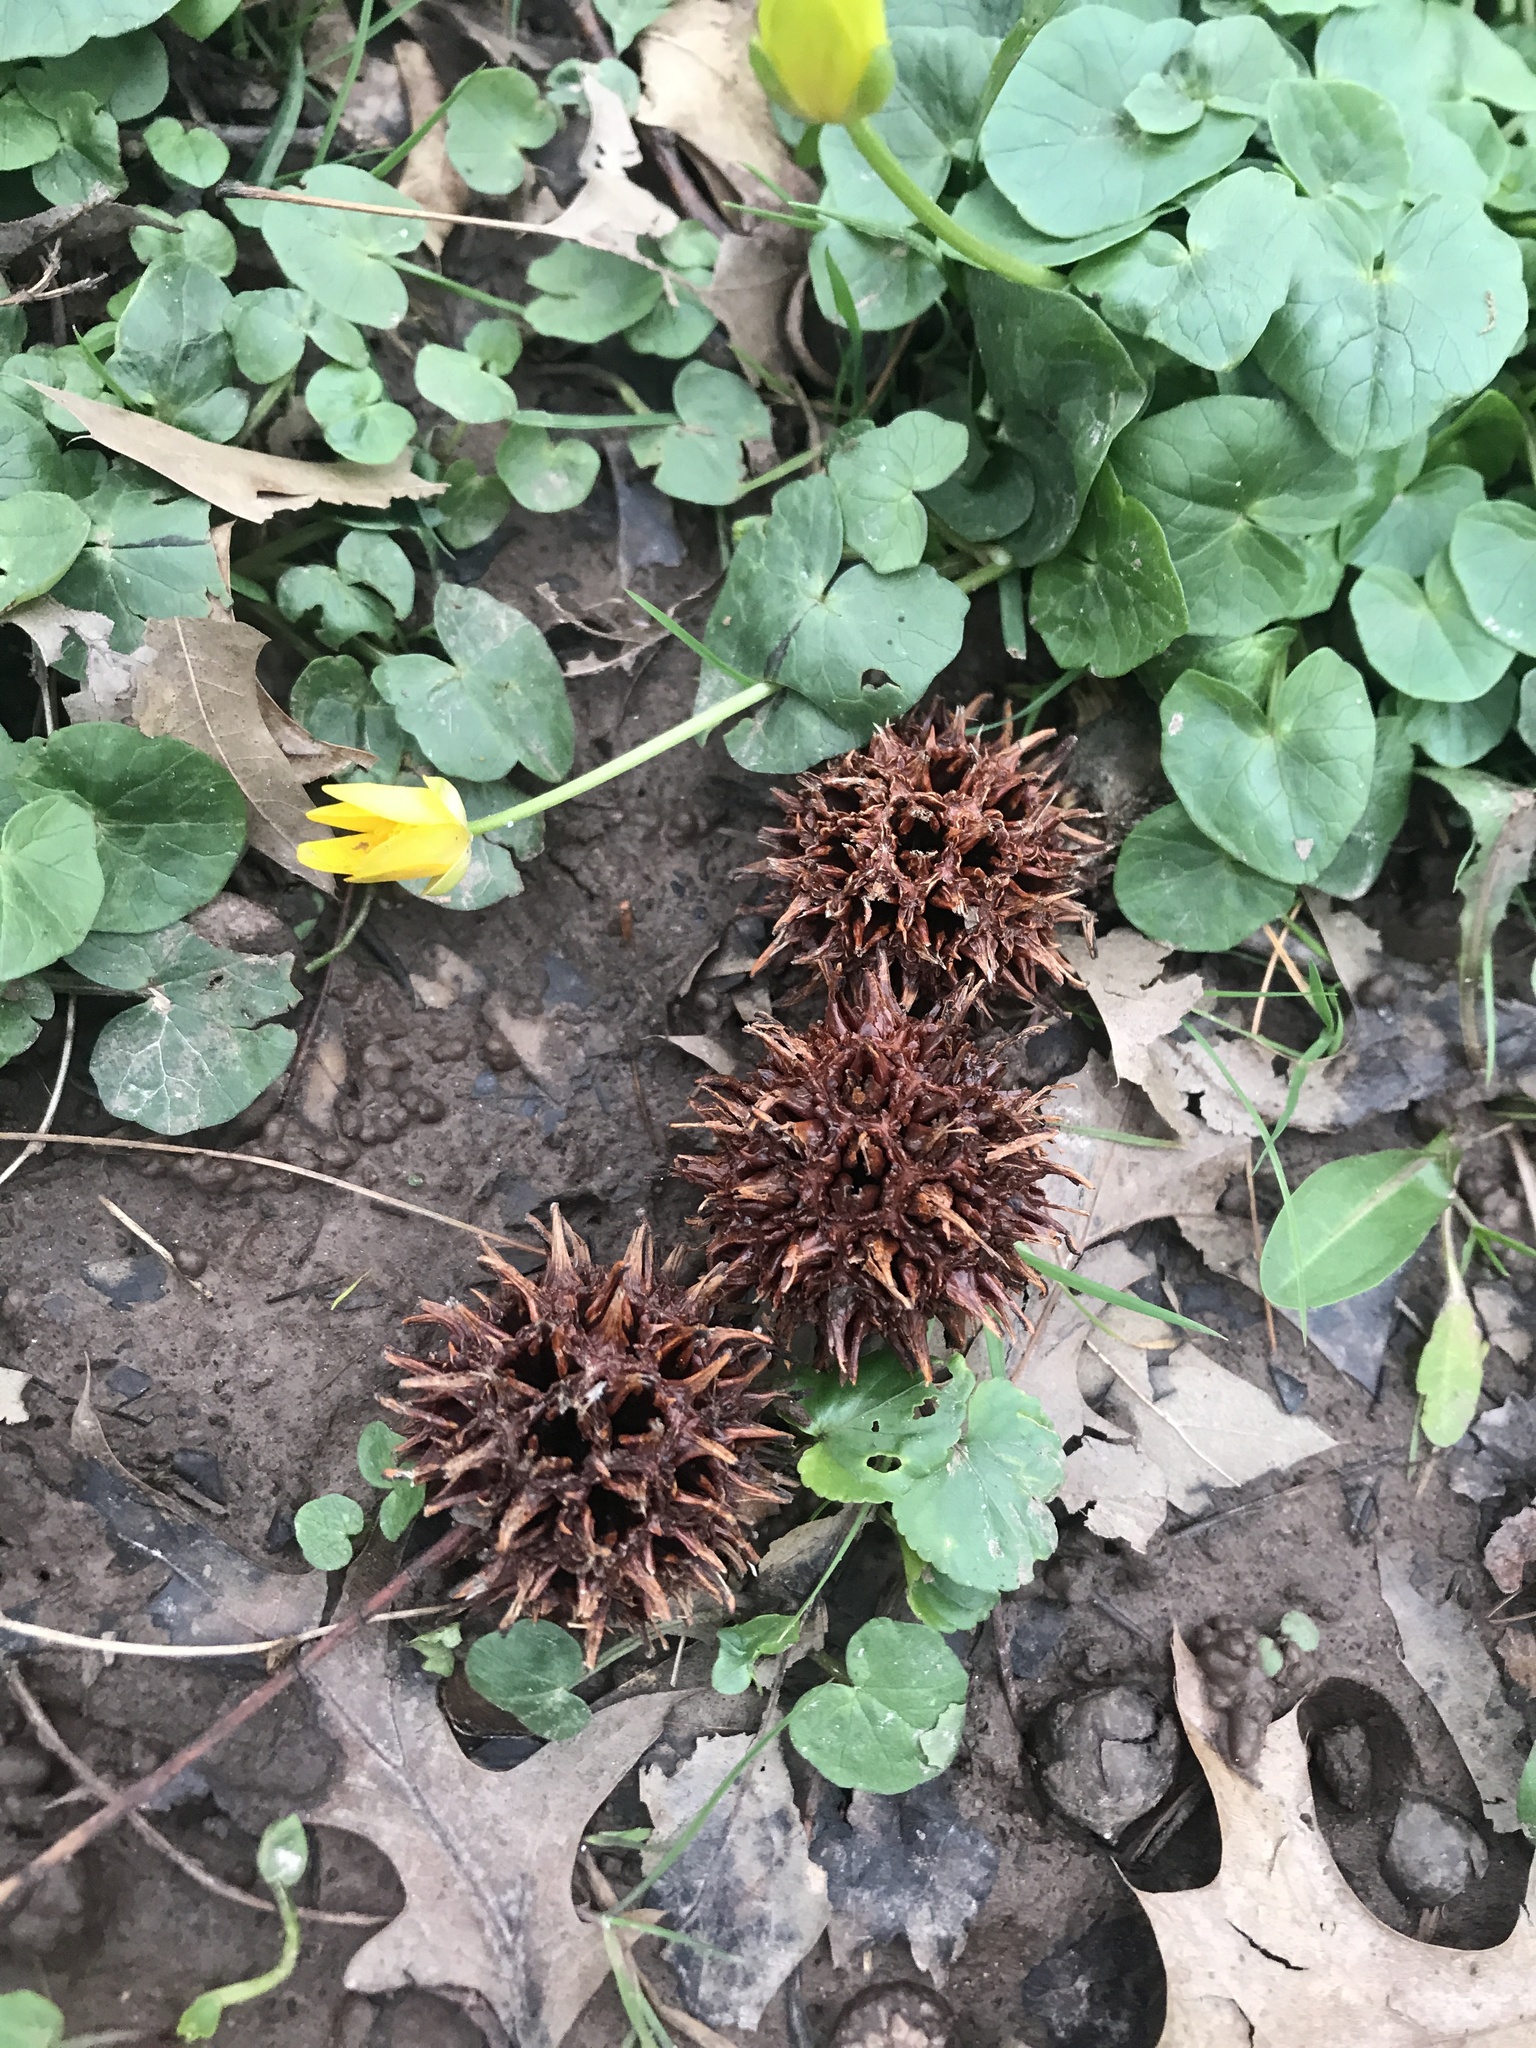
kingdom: Plantae
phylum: Tracheophyta
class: Magnoliopsida
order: Saxifragales
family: Altingiaceae
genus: Liquidambar
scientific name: Liquidambar styraciflua
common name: Sweet gum
